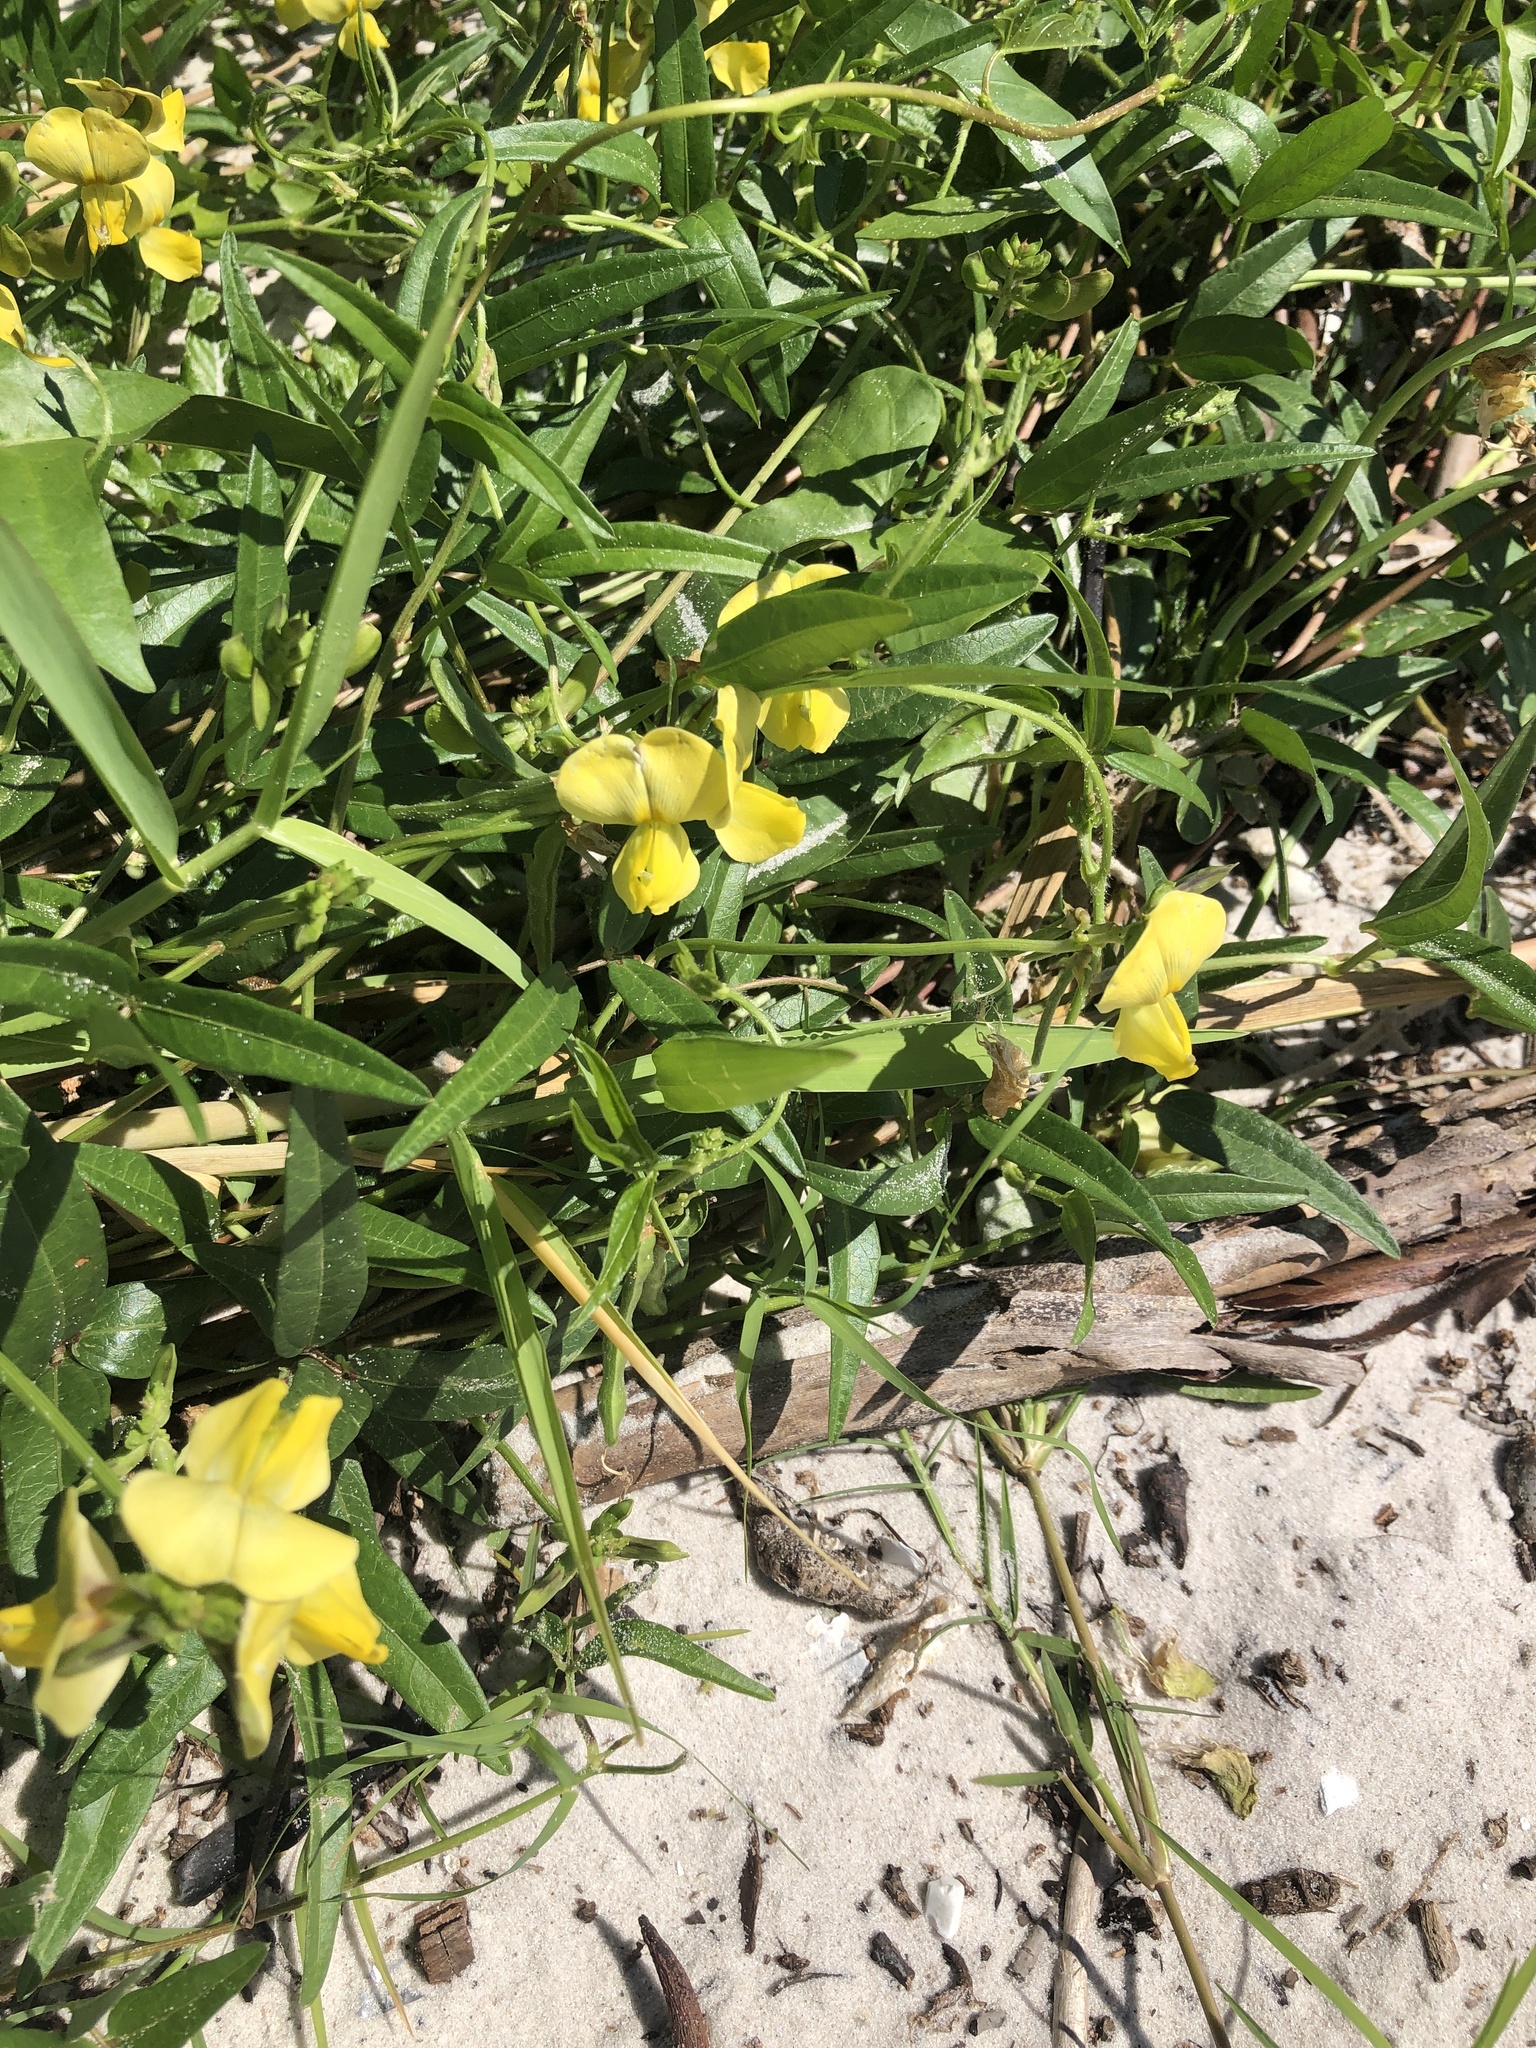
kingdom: Plantae
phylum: Tracheophyta
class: Magnoliopsida
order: Fabales
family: Fabaceae
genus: Vigna
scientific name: Vigna luteola
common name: Hairypod cowpea
